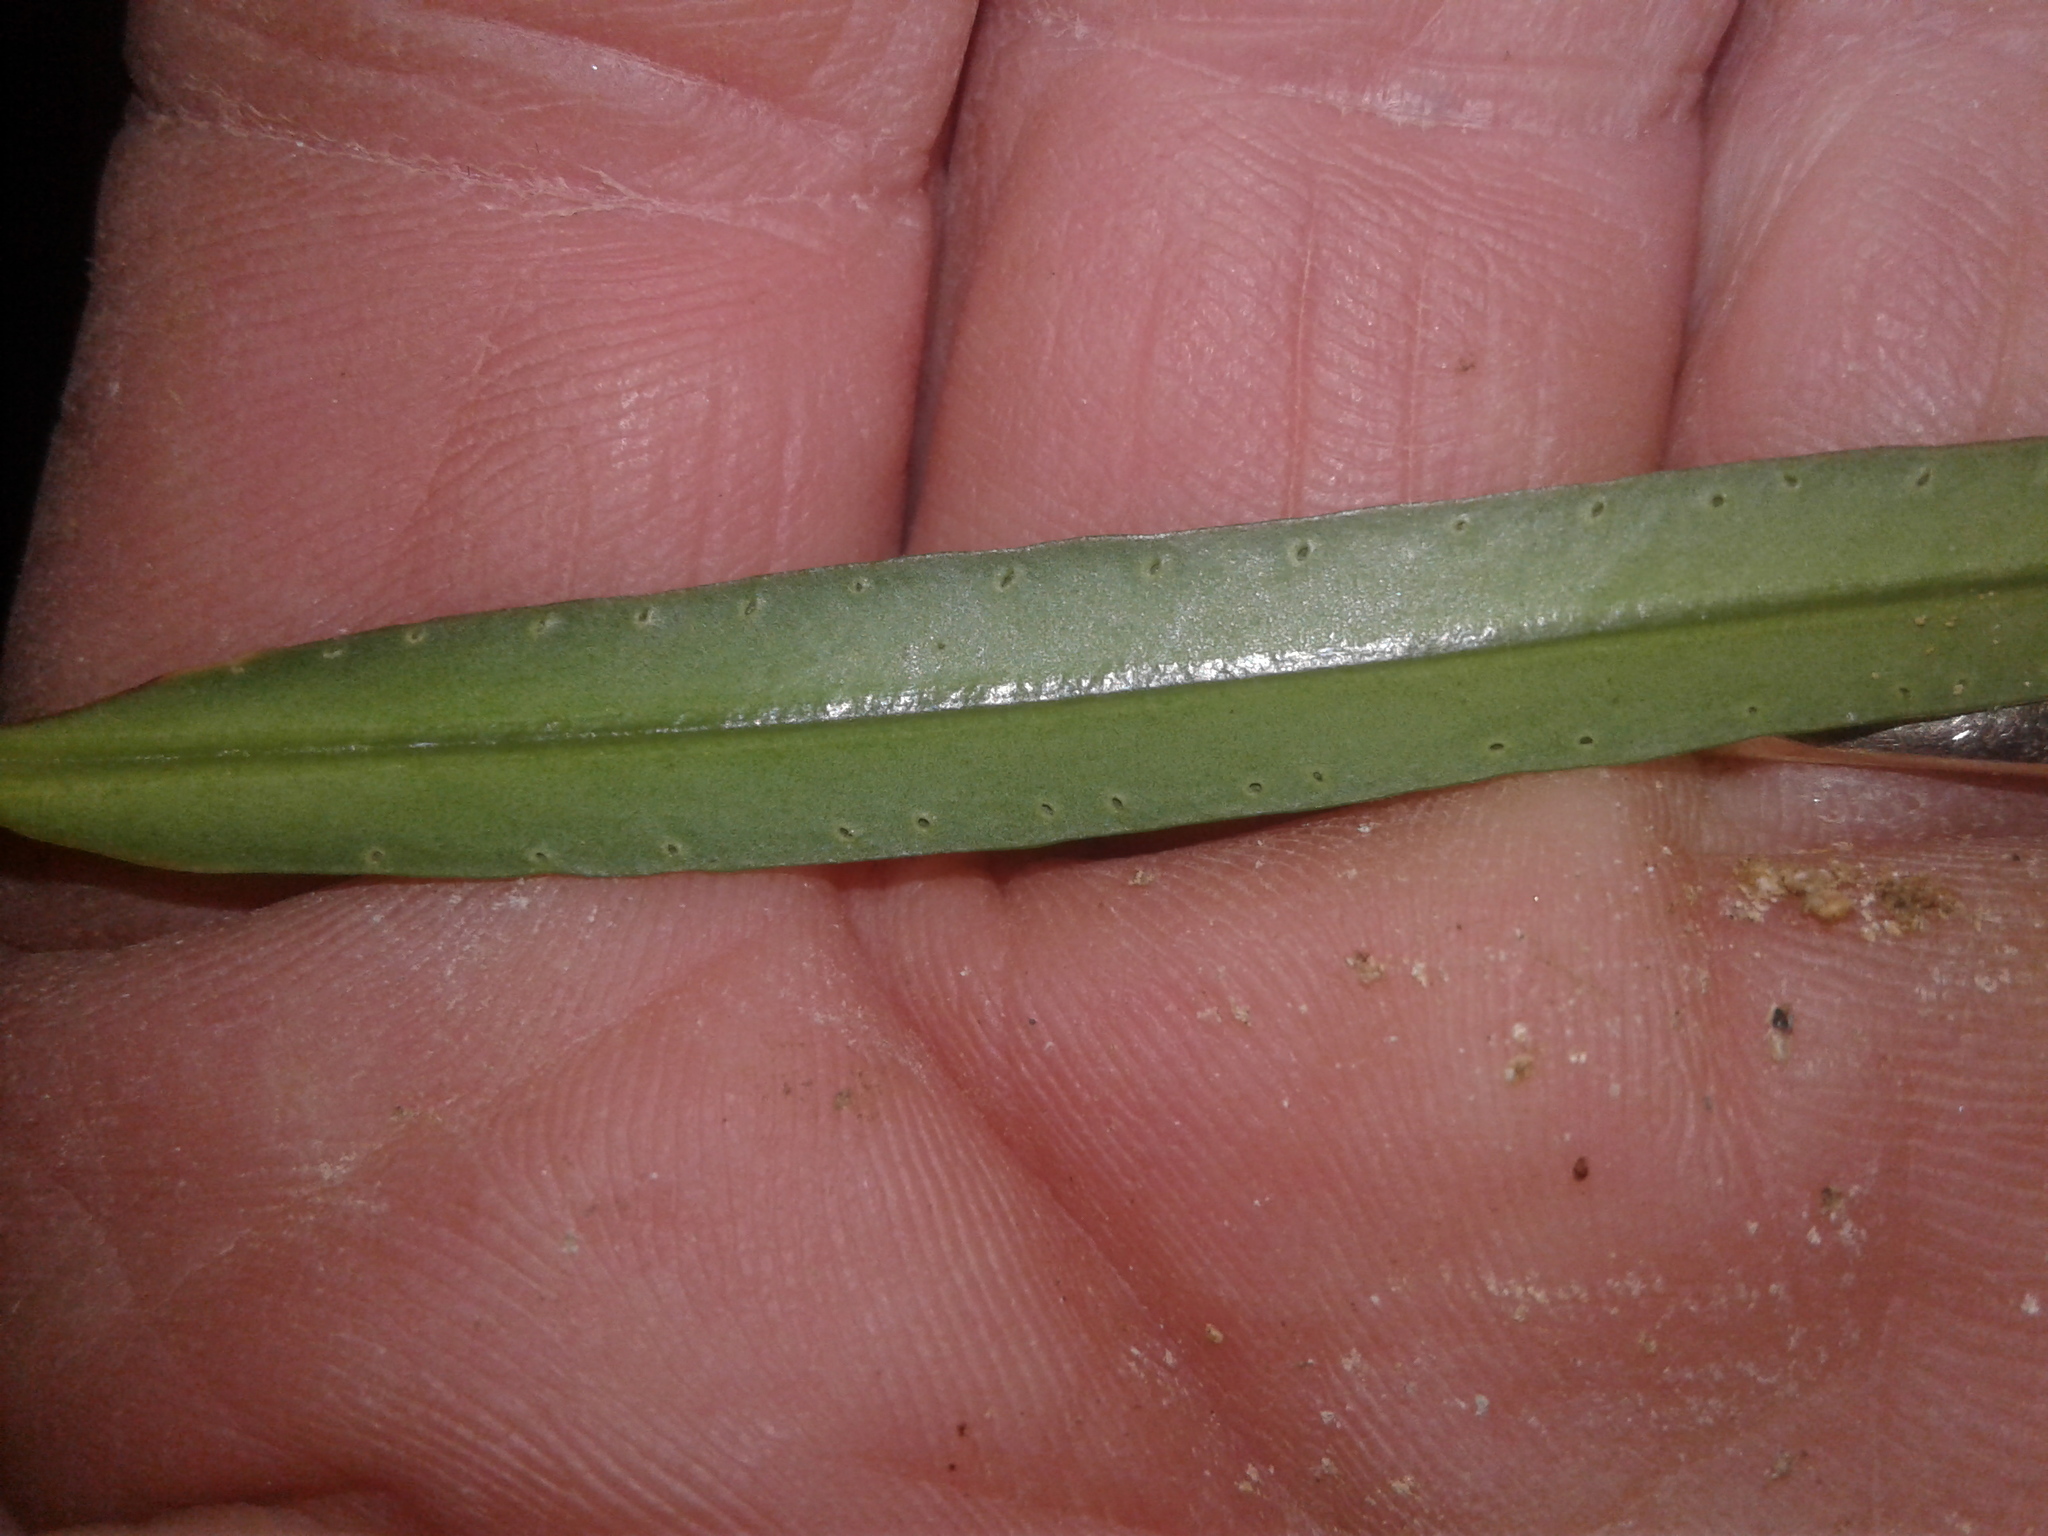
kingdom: Plantae
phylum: Tracheophyta
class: Magnoliopsida
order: Lamiales
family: Plantaginaceae
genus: Veronica
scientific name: Veronica townsonii
